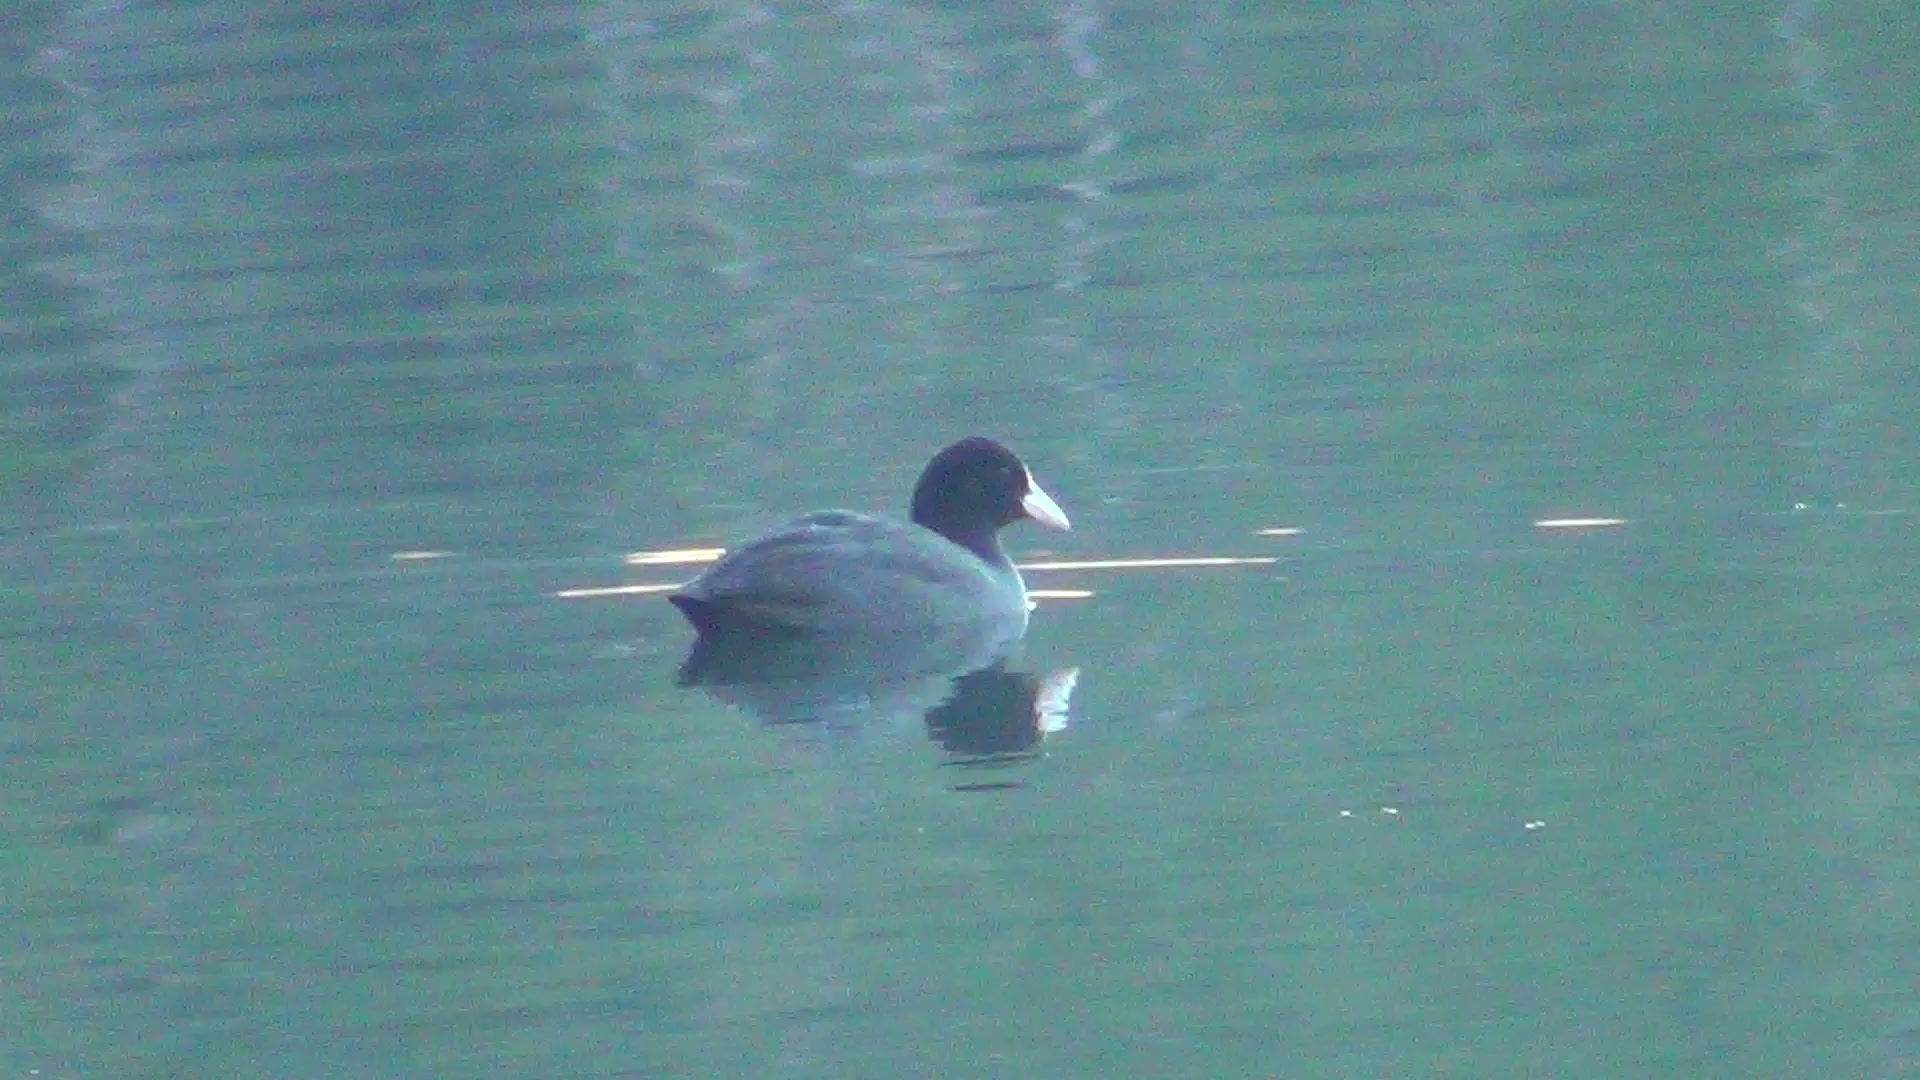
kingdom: Animalia
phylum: Chordata
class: Aves
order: Gruiformes
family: Rallidae
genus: Fulica
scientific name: Fulica atra
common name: Eurasian coot
